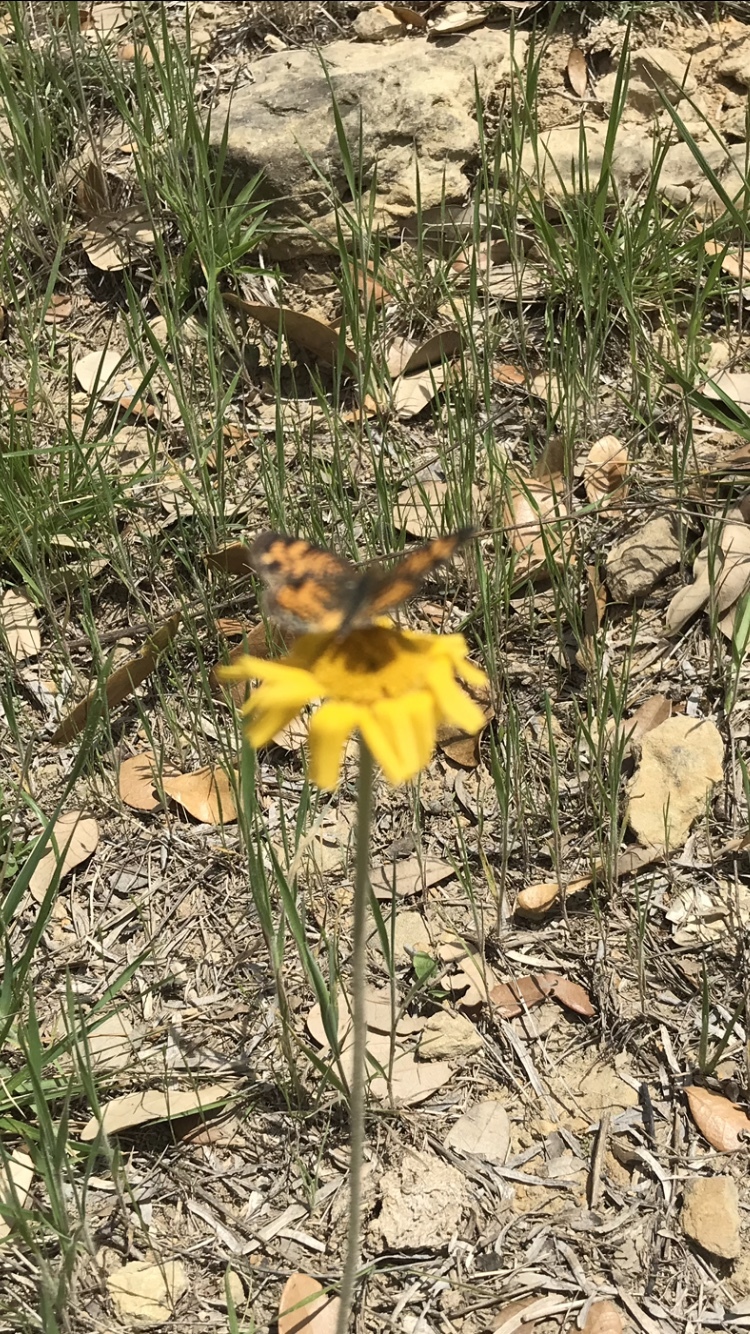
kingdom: Animalia
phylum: Arthropoda
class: Insecta
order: Lepidoptera
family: Nymphalidae
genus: Phyciodes
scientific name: Phyciodes tharos
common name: Pearl crescent
